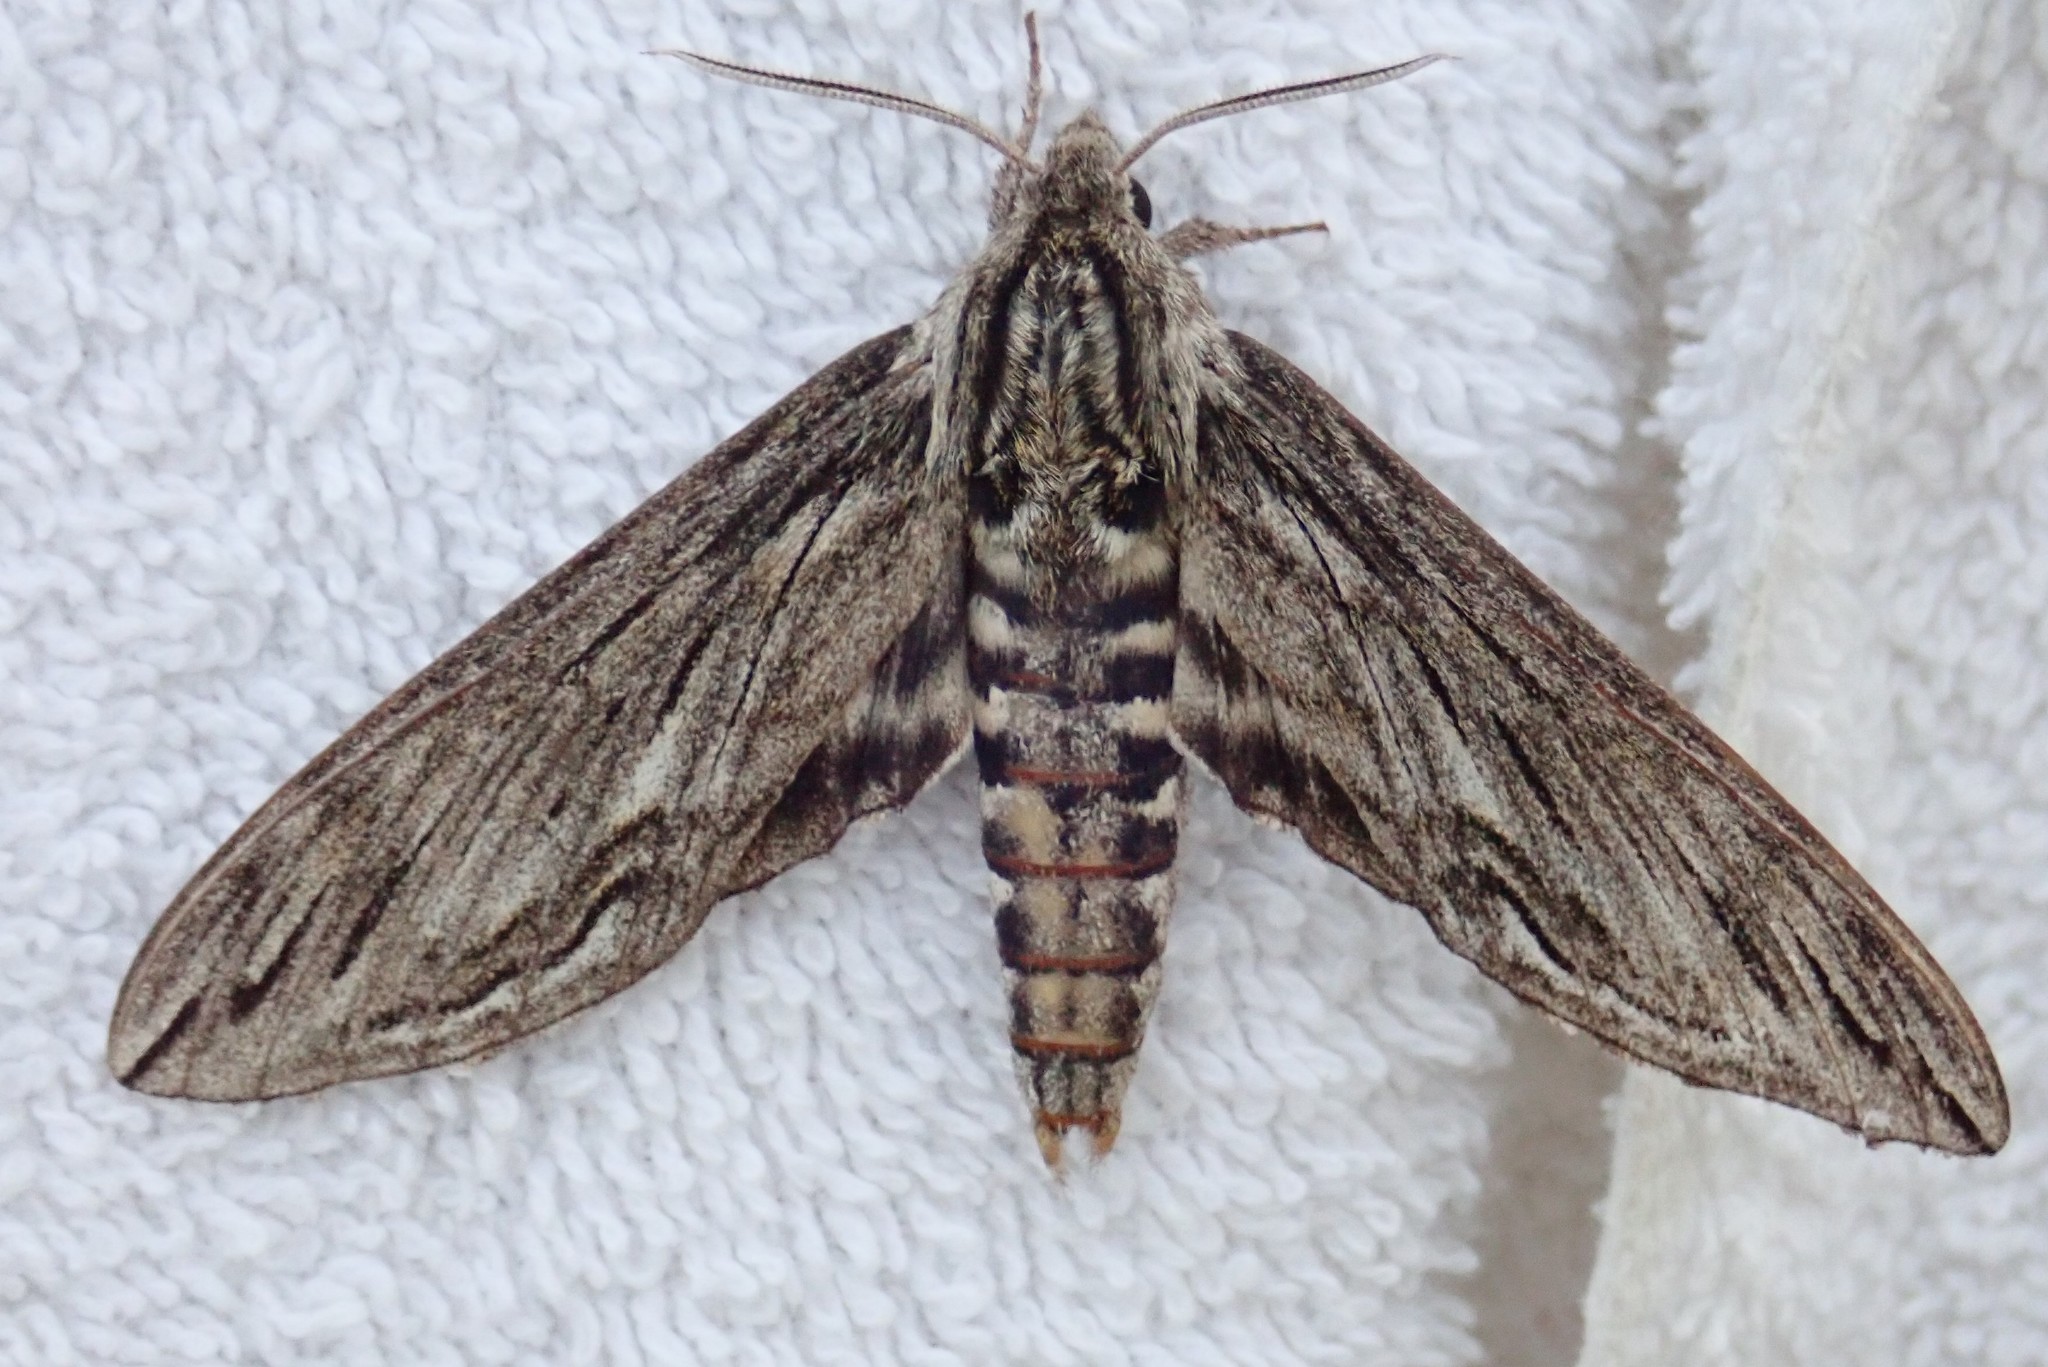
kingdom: Animalia
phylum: Arthropoda
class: Insecta
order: Lepidoptera
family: Sphingidae
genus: Sphinx
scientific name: Sphinx canadensis
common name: Canadian sphinx
